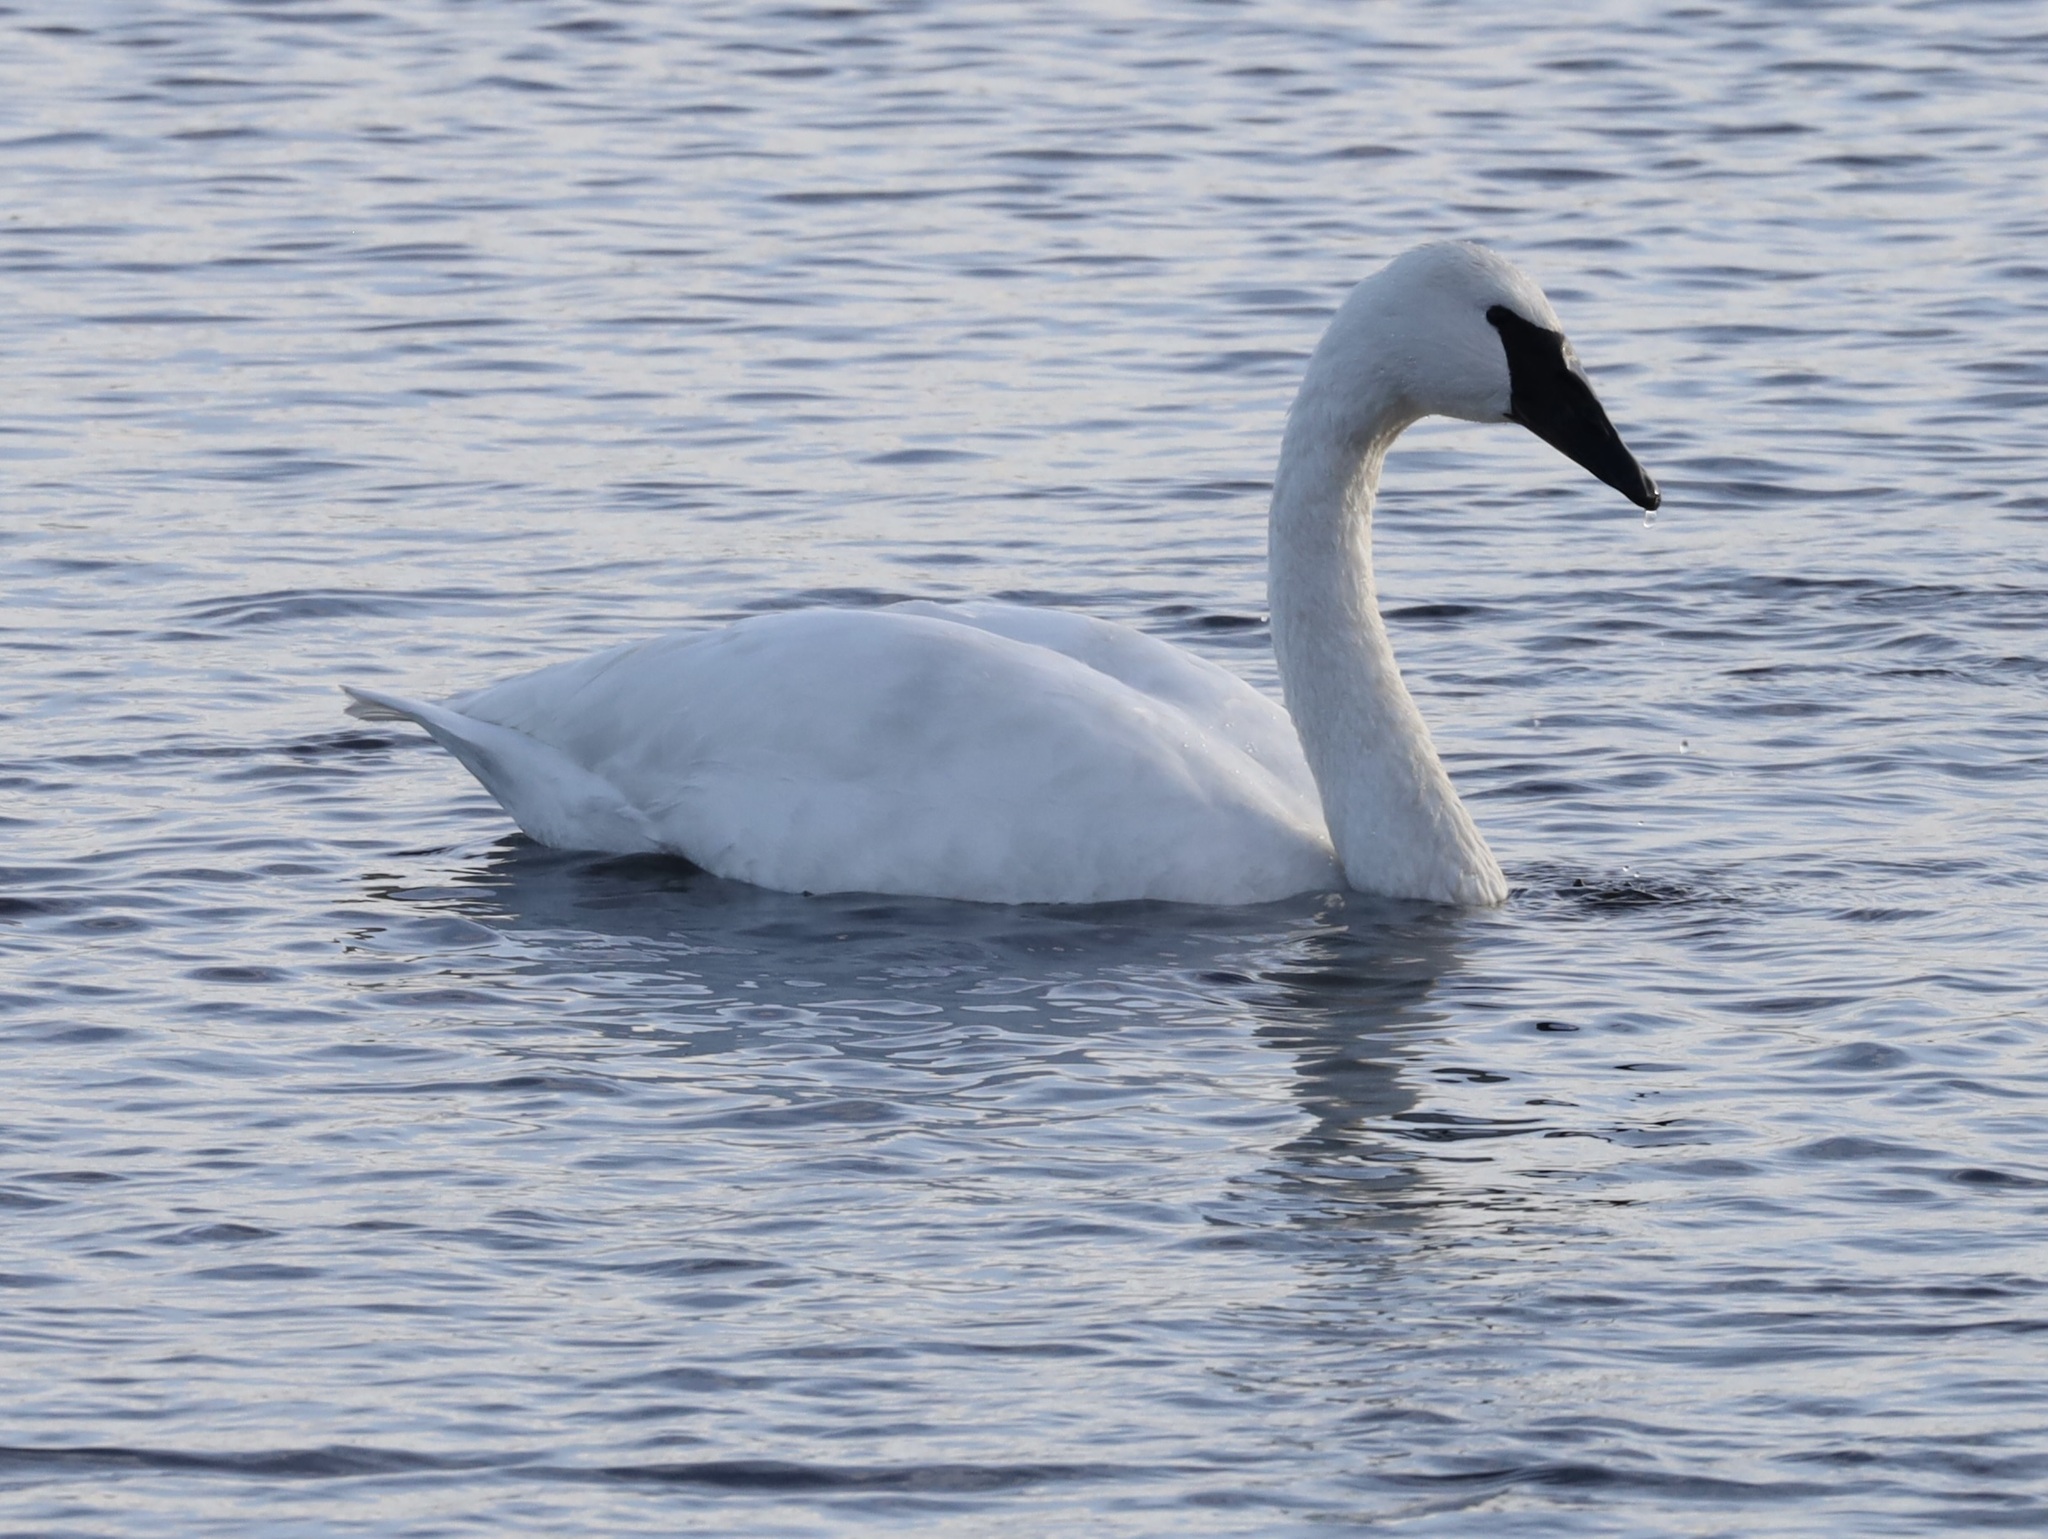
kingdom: Animalia
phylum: Chordata
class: Aves
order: Anseriformes
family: Anatidae
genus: Cygnus
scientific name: Cygnus buccinator
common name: Trumpeter swan
